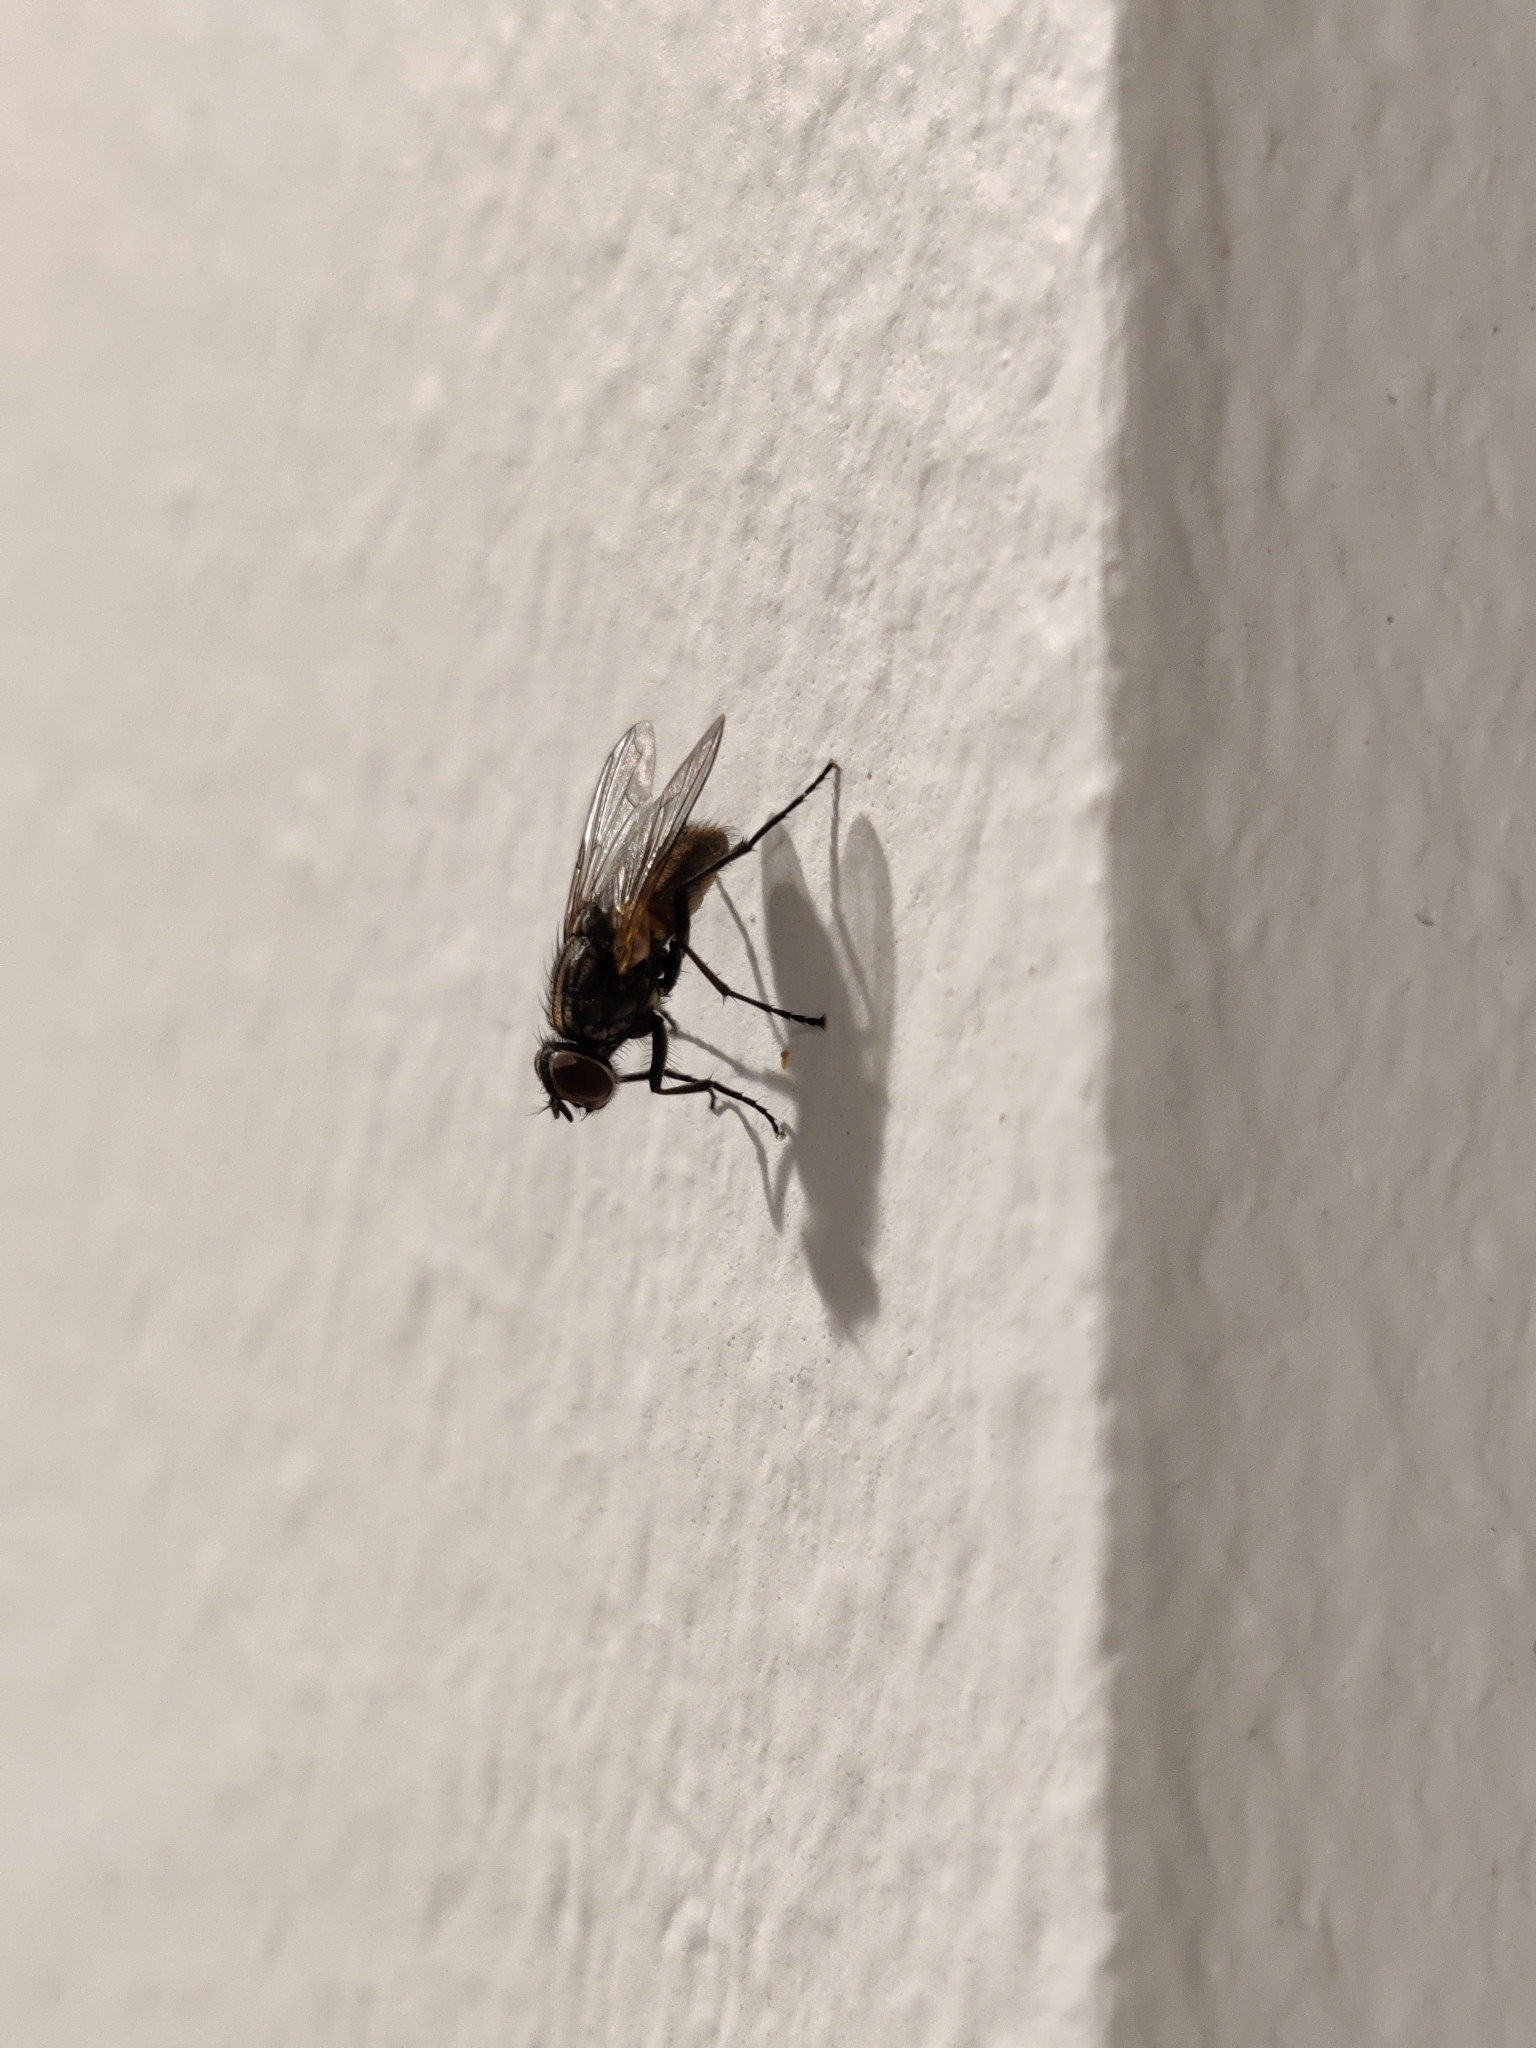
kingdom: Animalia
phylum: Arthropoda
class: Insecta
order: Diptera
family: Muscidae
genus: Musca
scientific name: Musca domestica
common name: House fly
